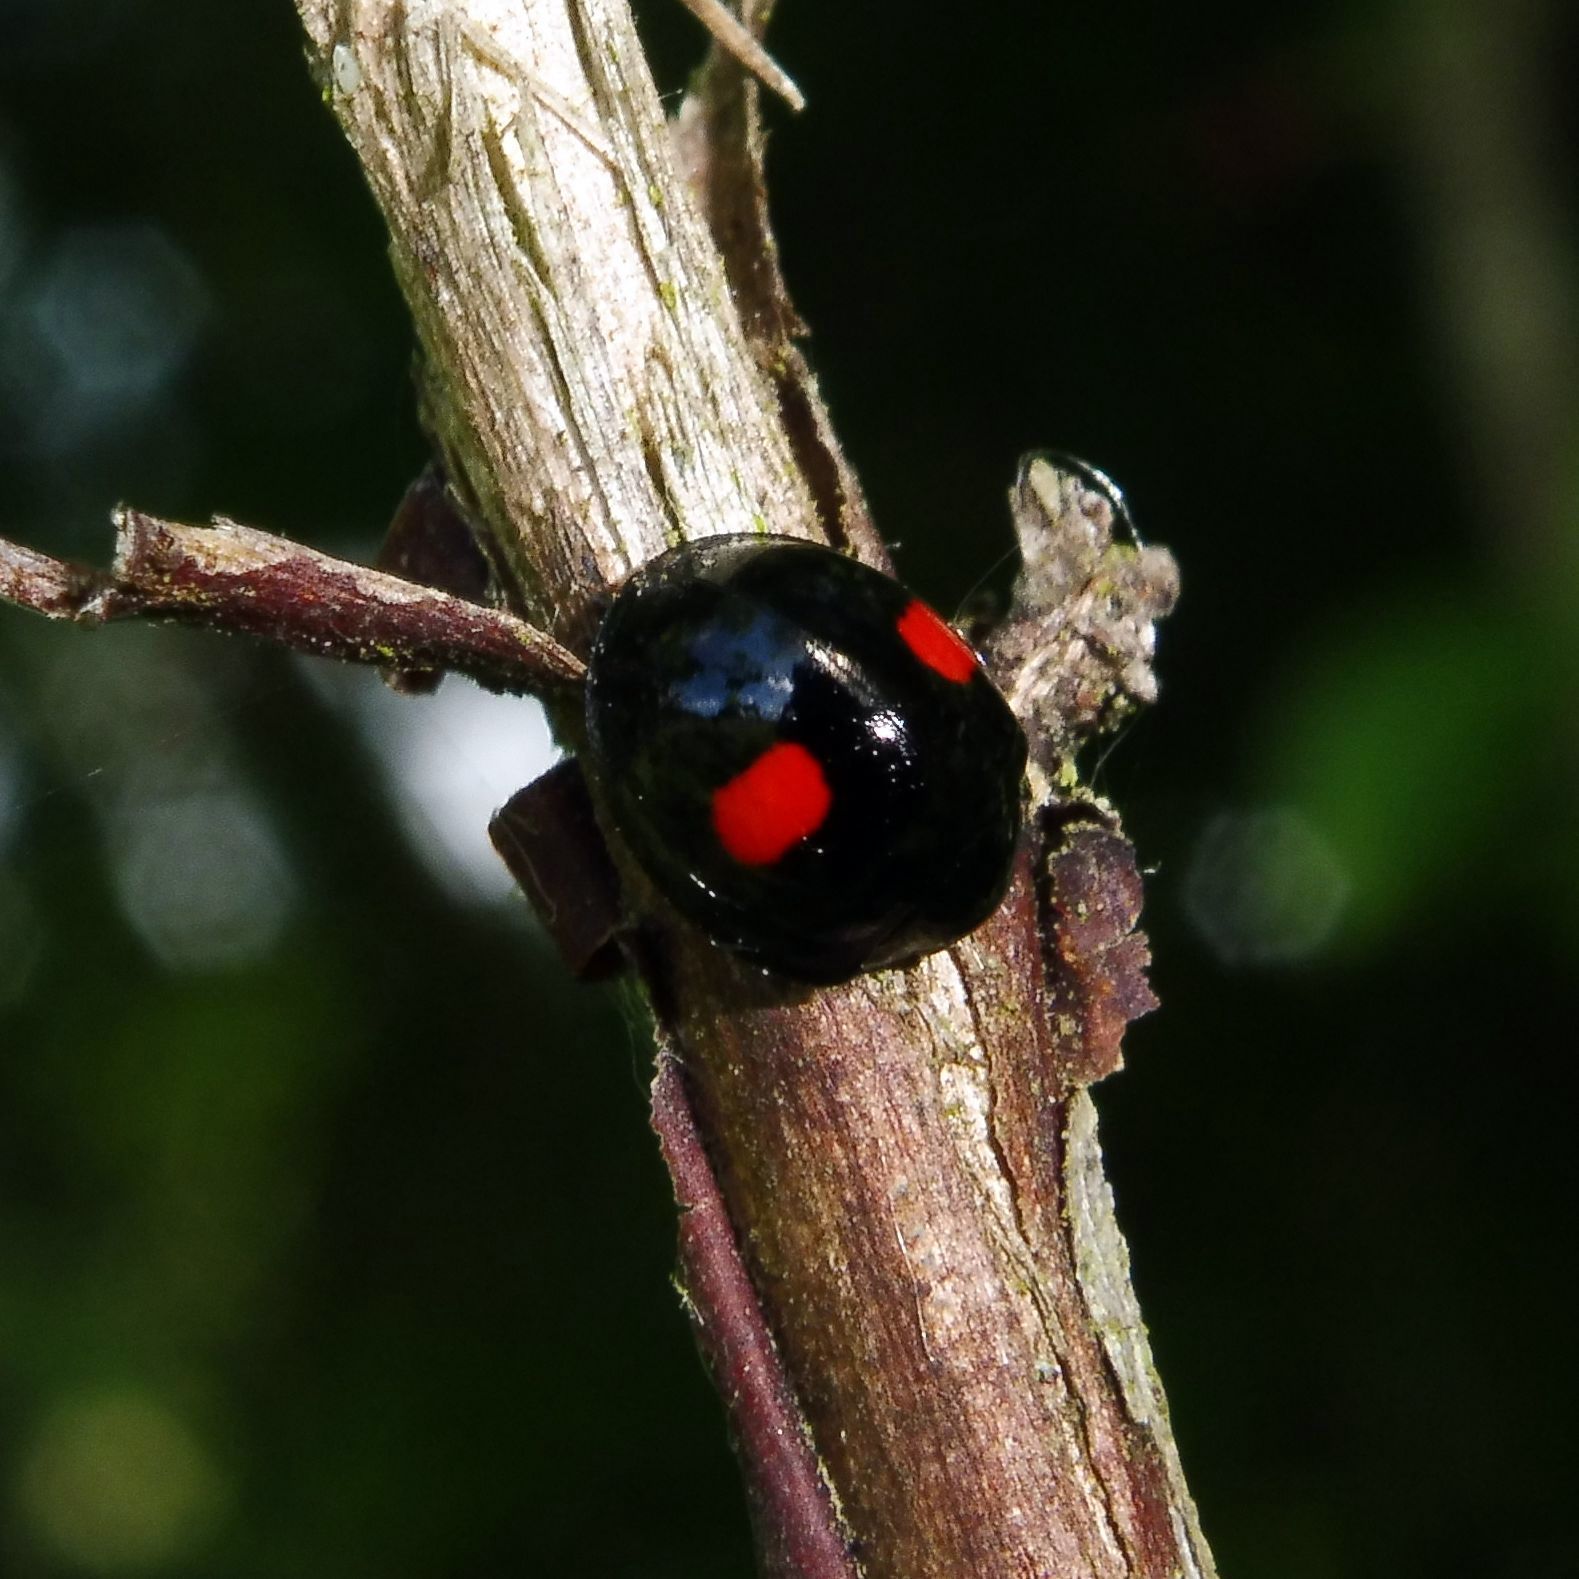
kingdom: Animalia
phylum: Arthropoda
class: Insecta
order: Coleoptera
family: Coccinellidae
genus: Chilocorus
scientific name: Chilocorus renipustulatus
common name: Kidney-spot ladybird
